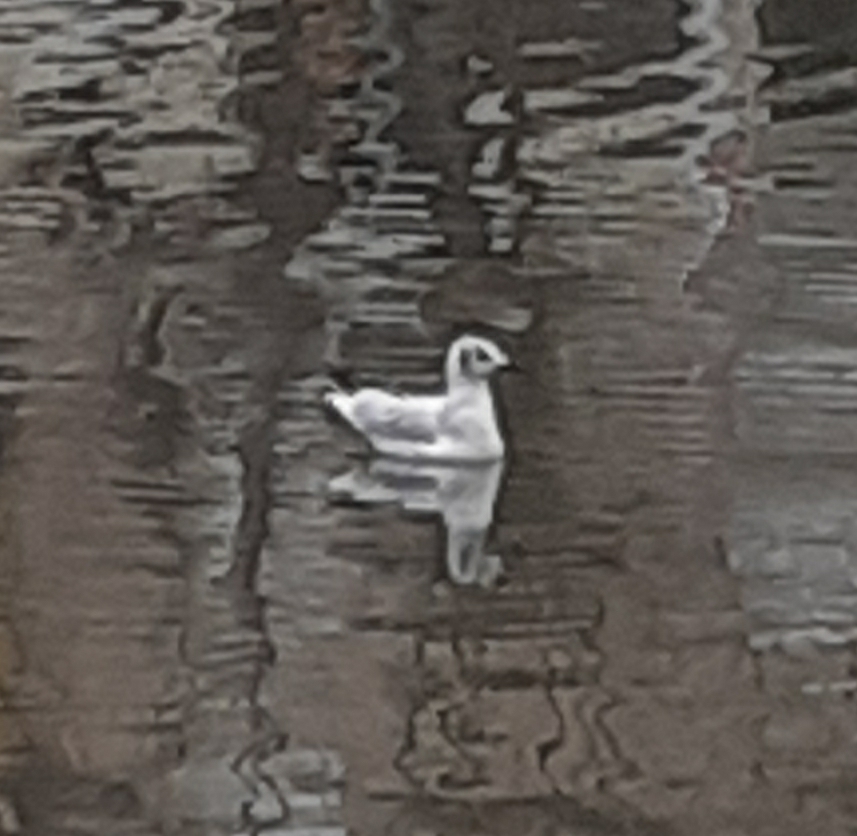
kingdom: Animalia
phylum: Chordata
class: Aves
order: Charadriiformes
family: Laridae
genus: Chroicocephalus
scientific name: Chroicocephalus ridibundus
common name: Black-headed gull
